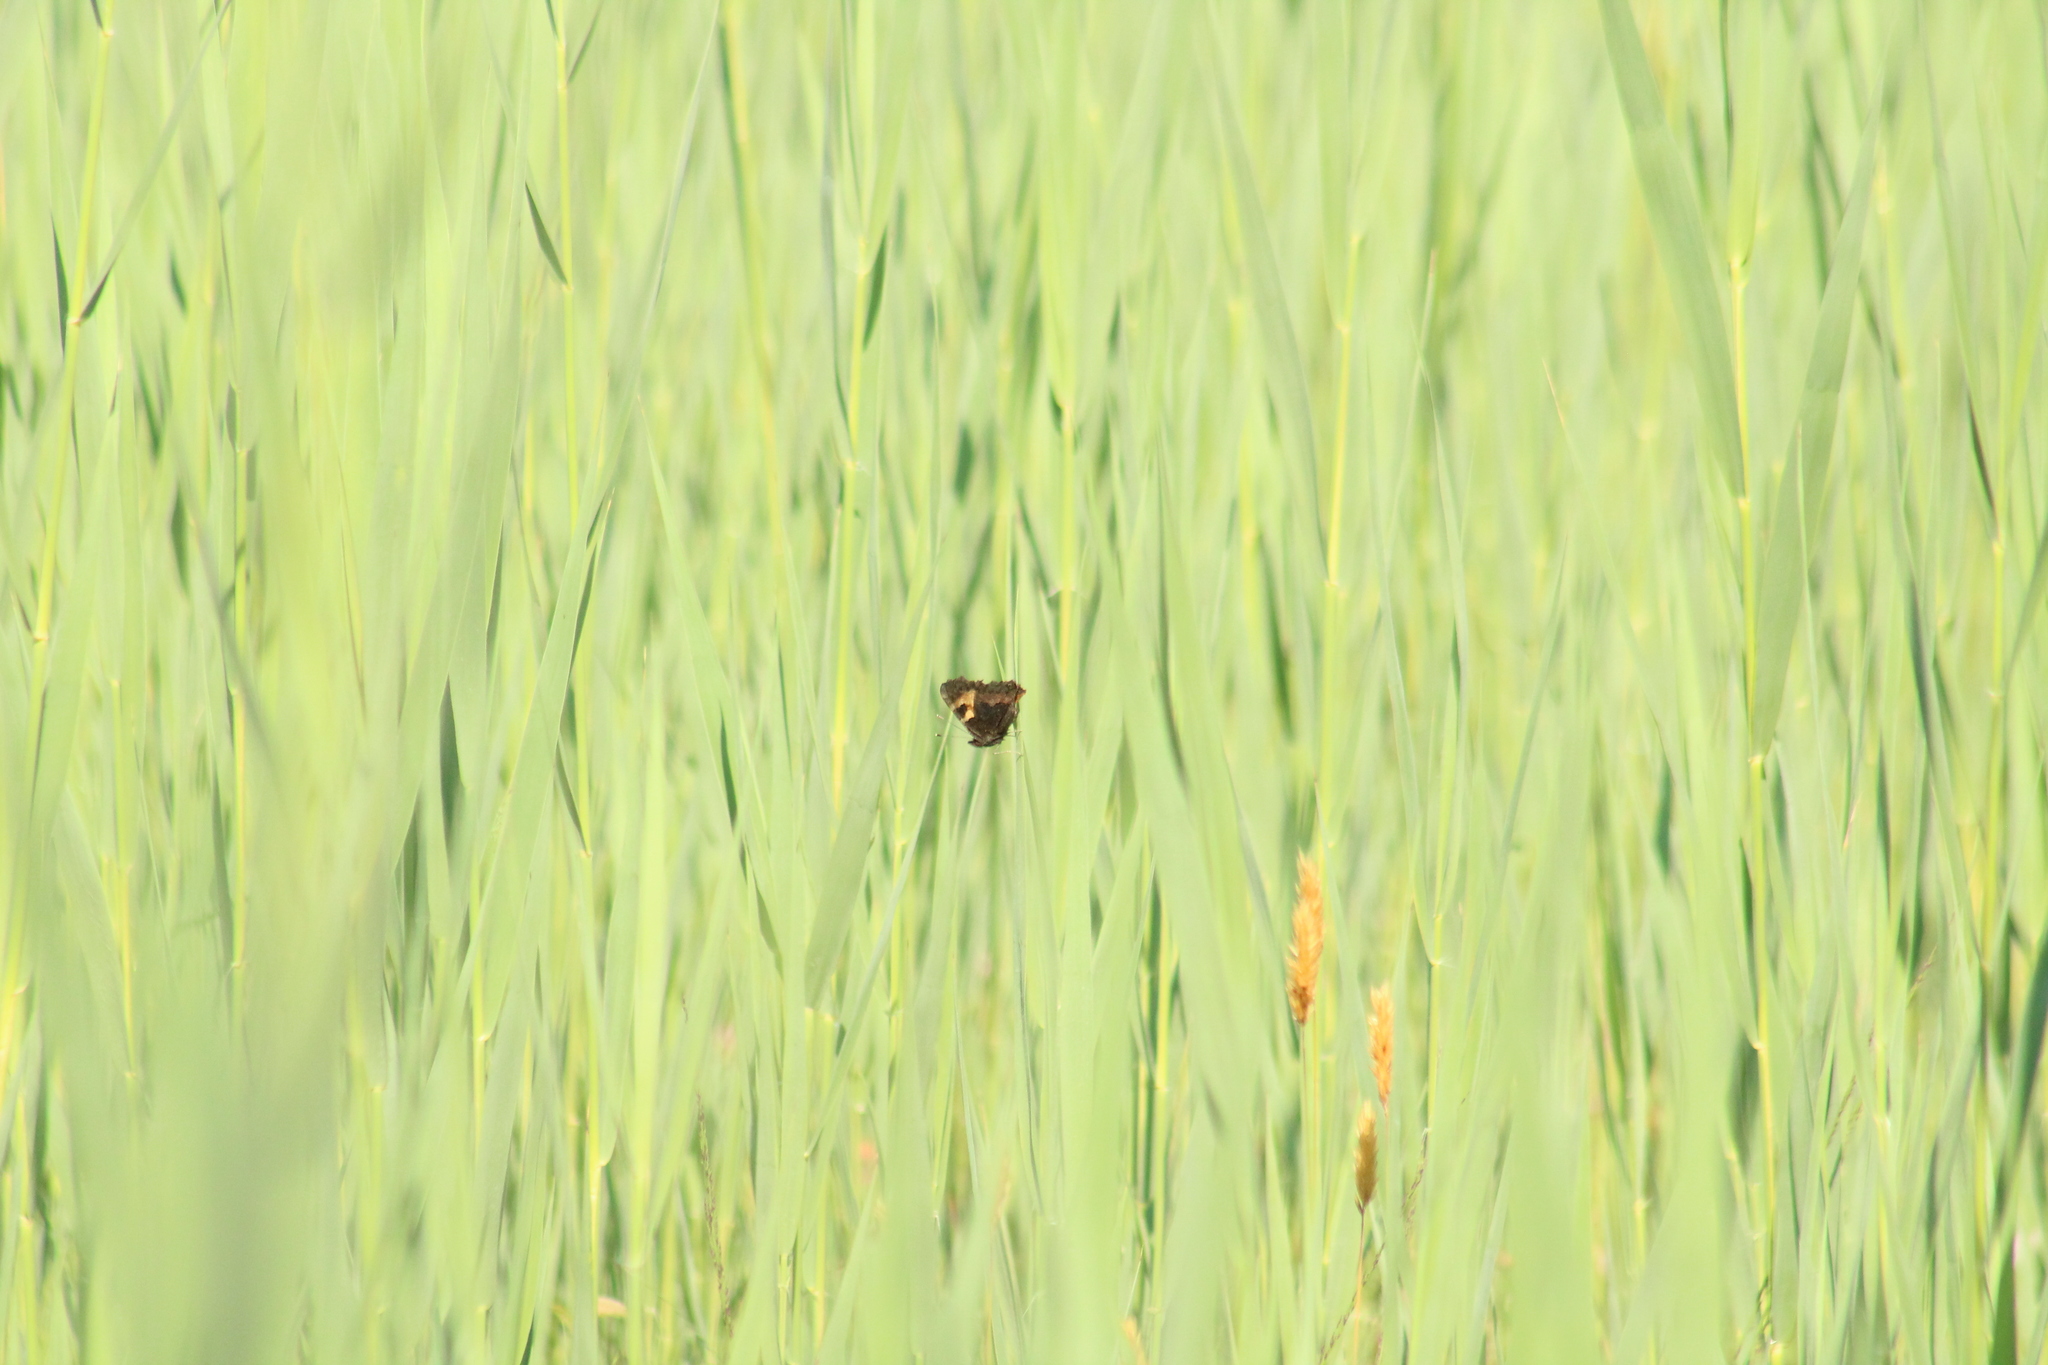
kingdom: Animalia
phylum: Arthropoda
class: Insecta
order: Lepidoptera
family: Nymphalidae
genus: Aglais
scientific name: Aglais urticae
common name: Small tortoiseshell
